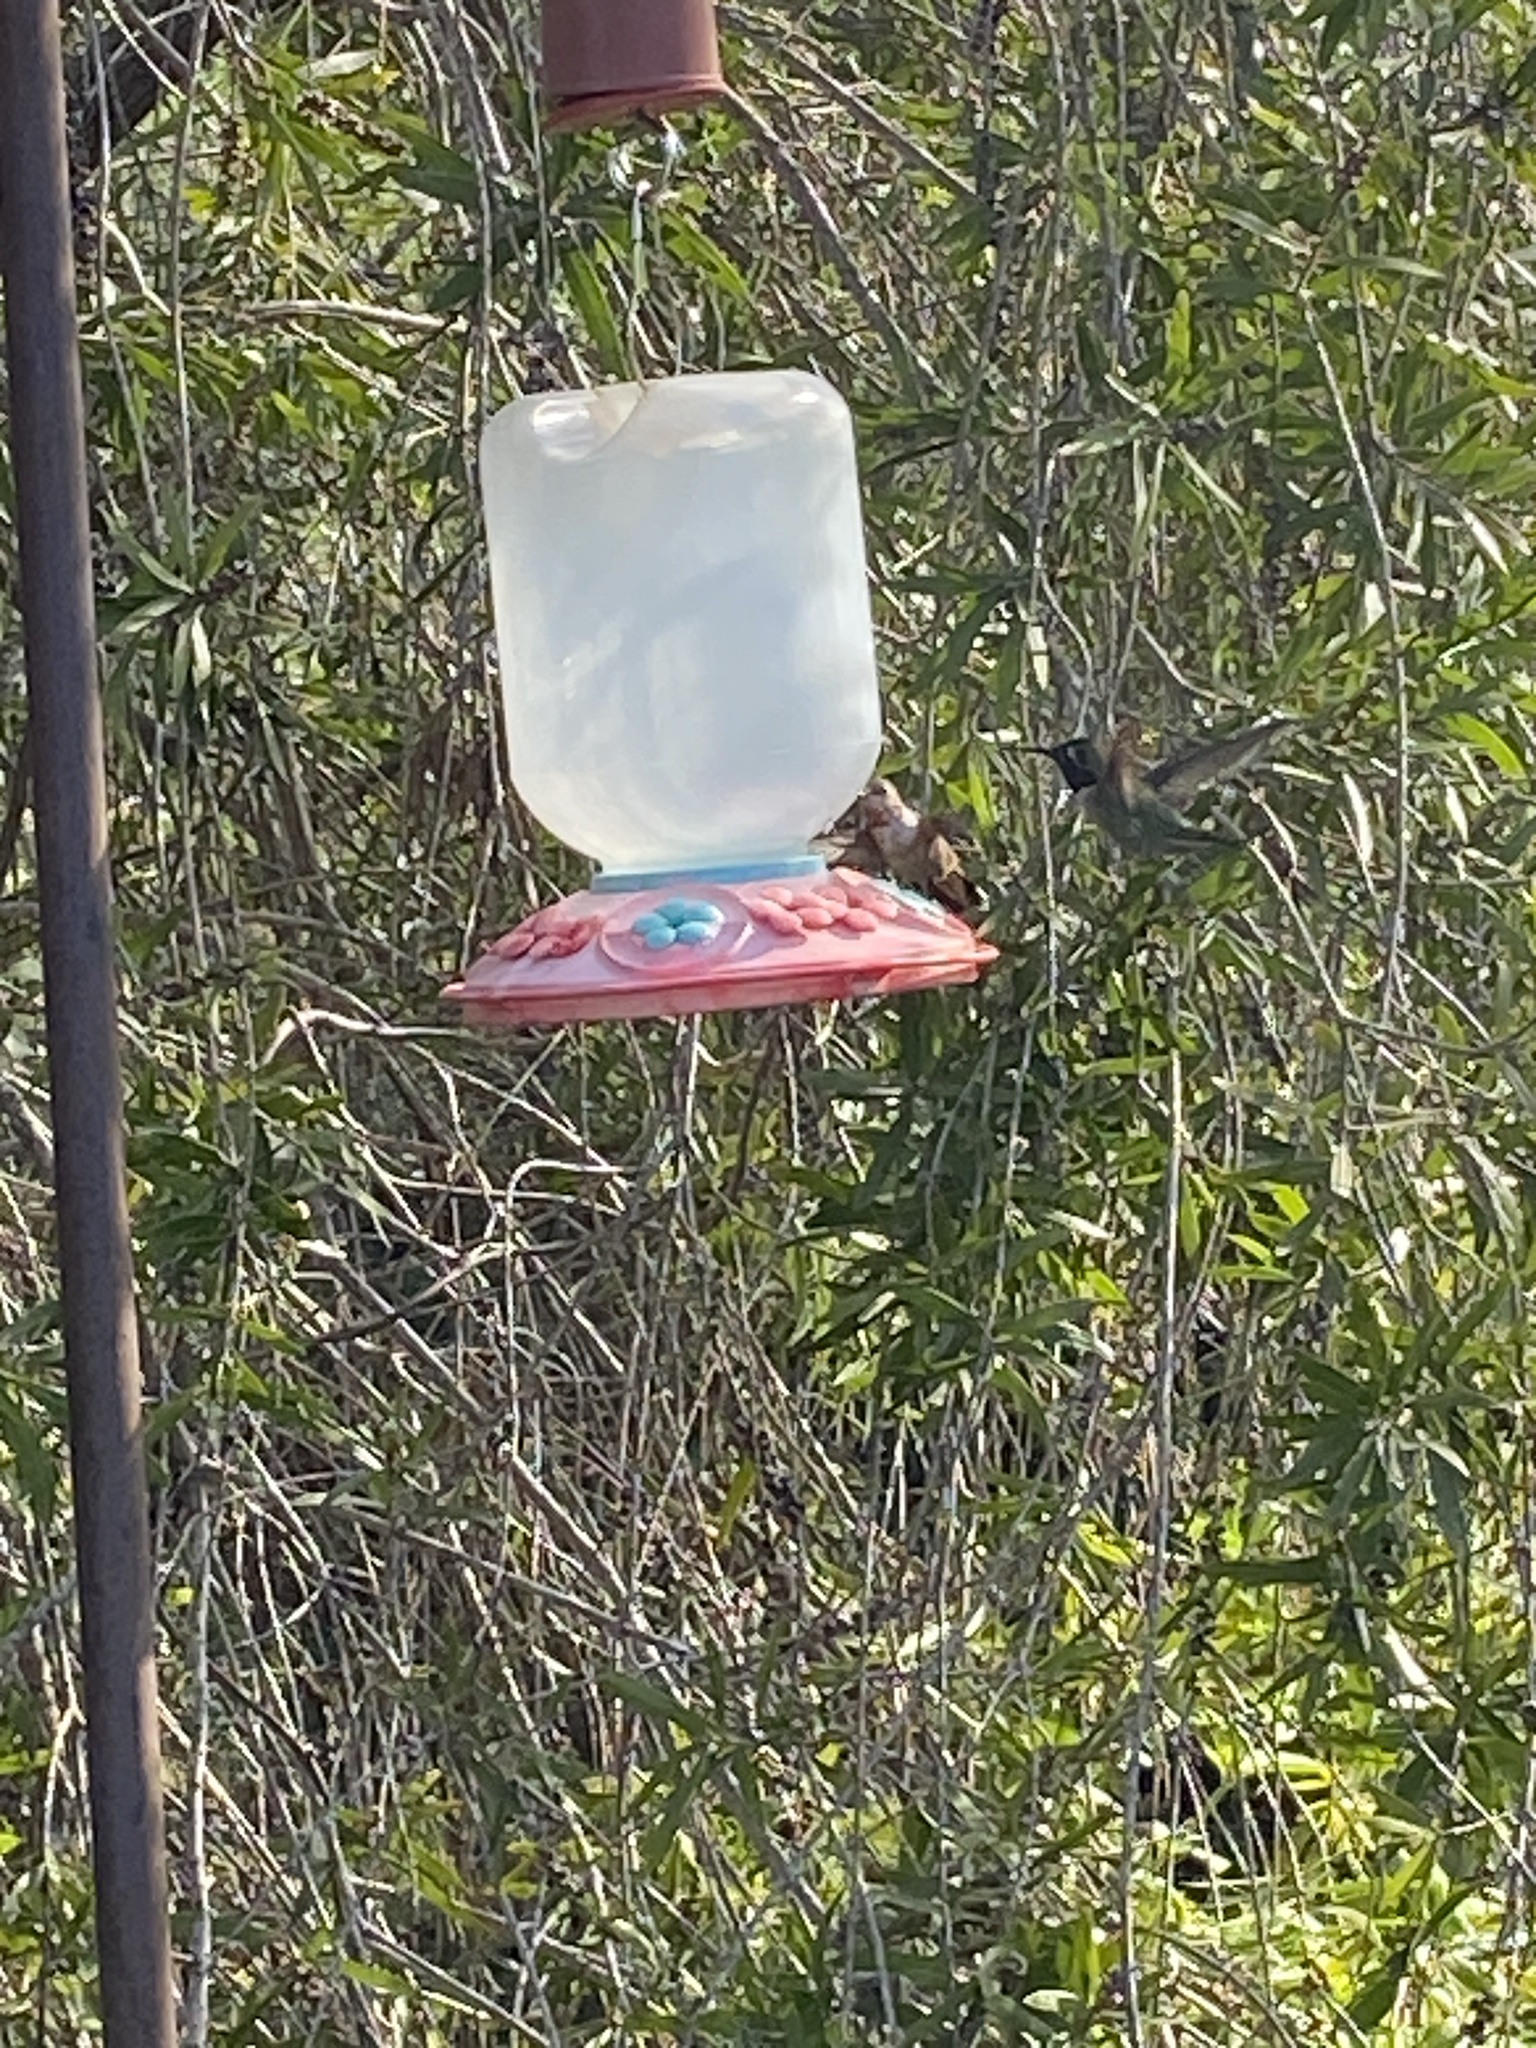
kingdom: Animalia
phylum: Chordata
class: Aves
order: Apodiformes
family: Trochilidae
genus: Calypte
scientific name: Calypte anna
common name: Anna's hummingbird
